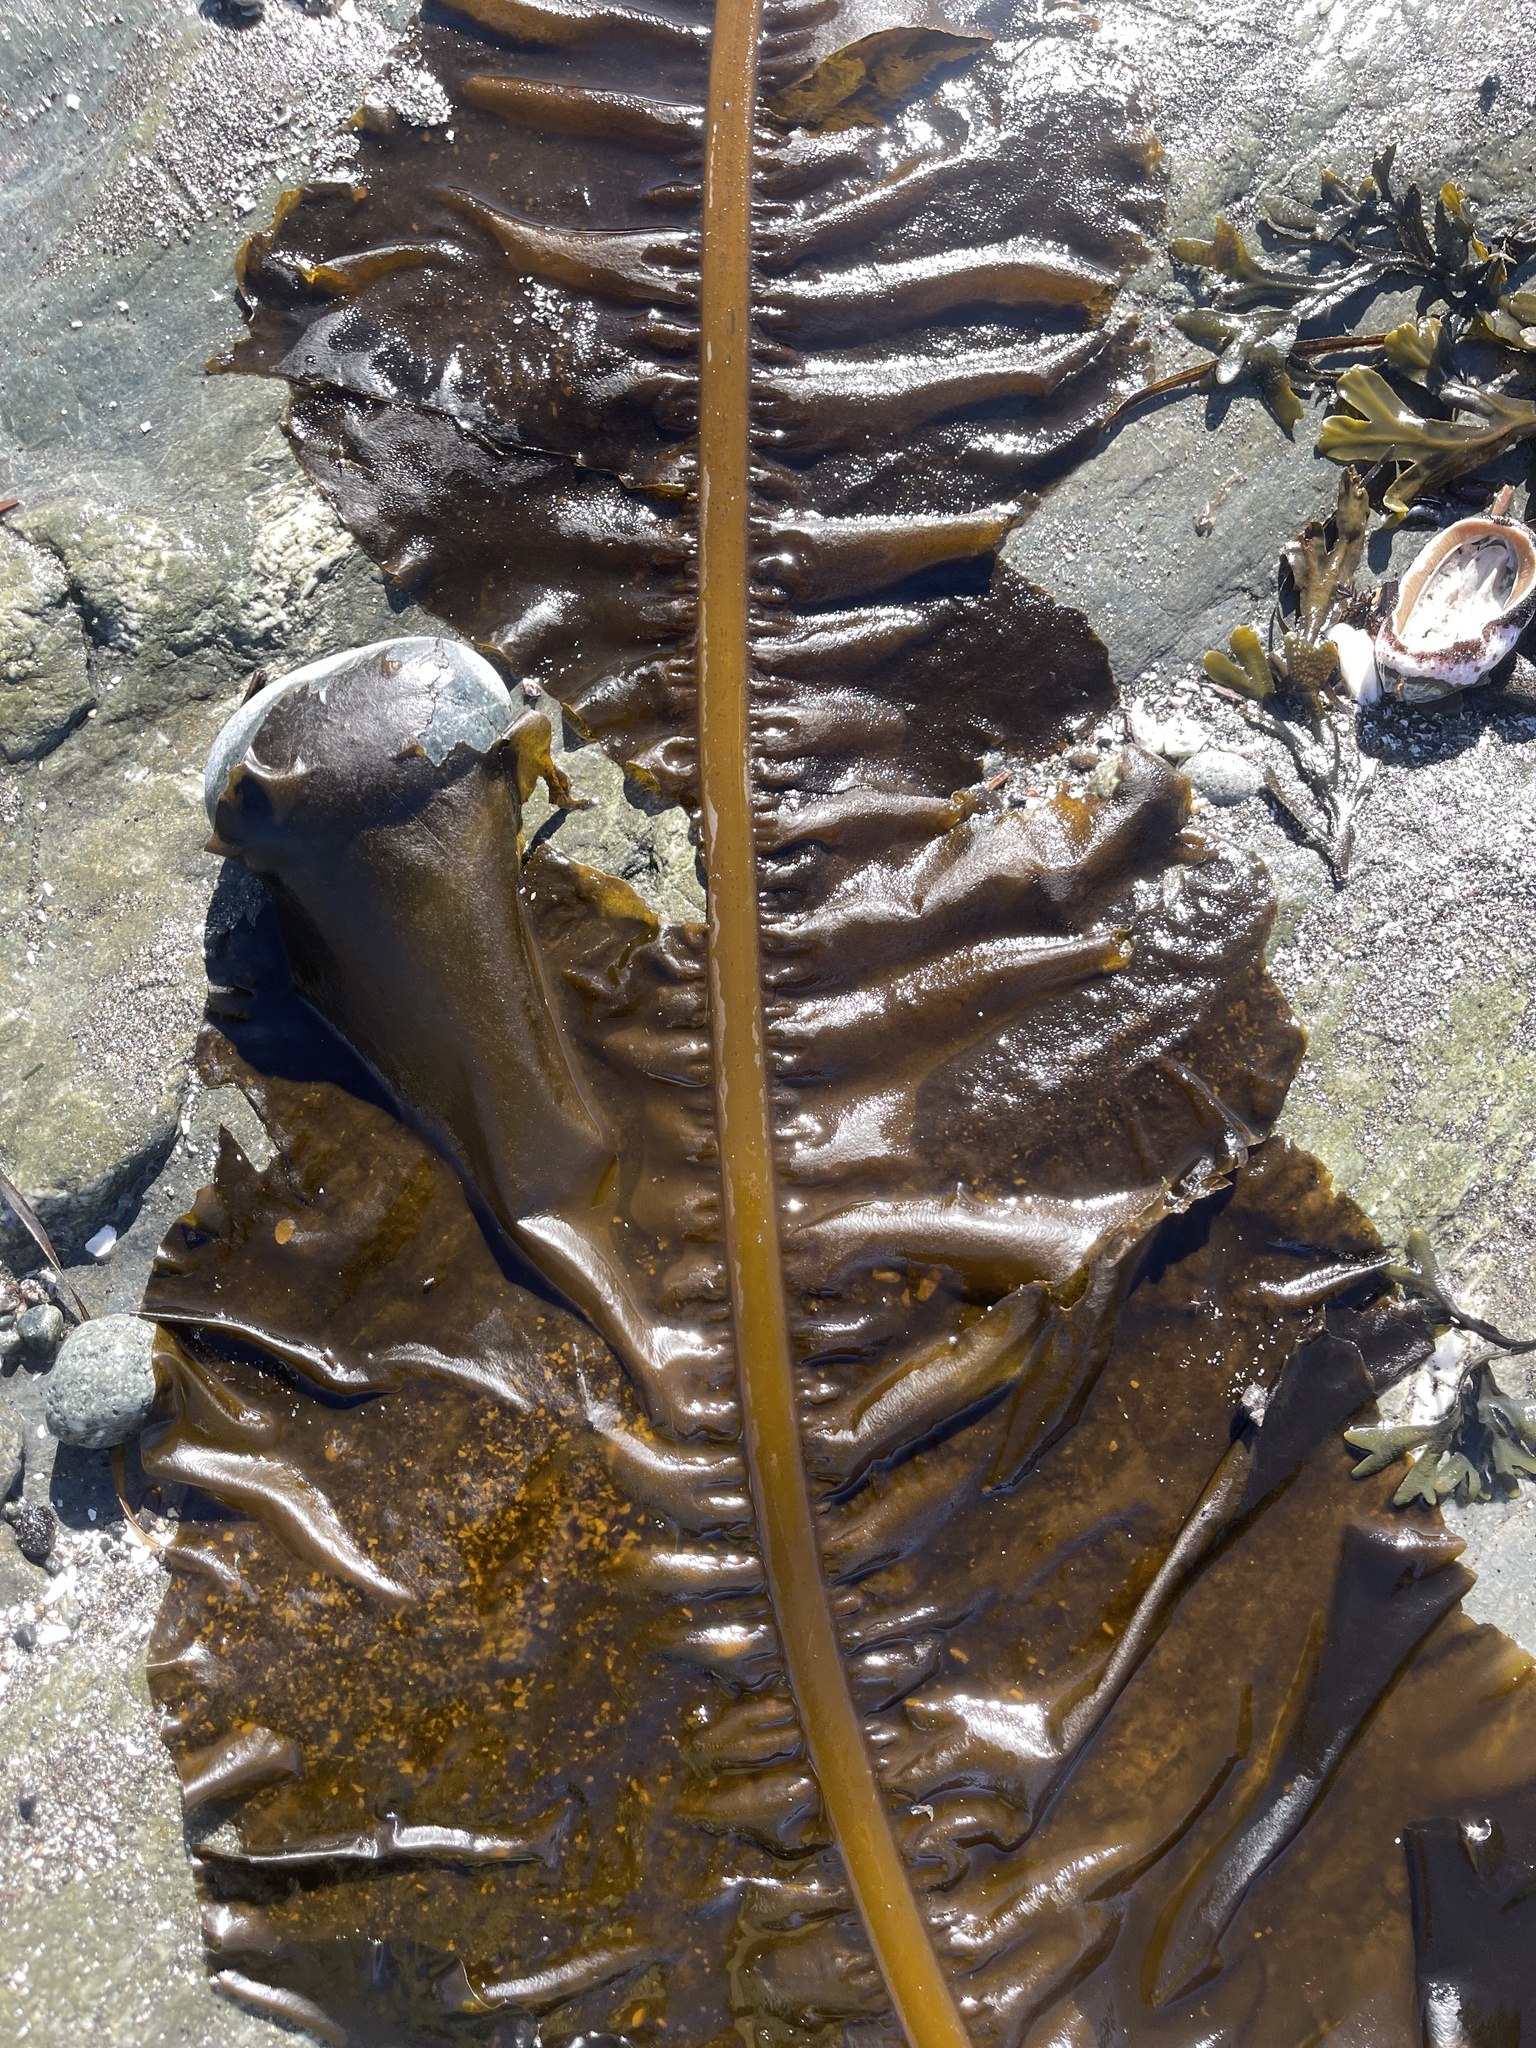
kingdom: Chromista
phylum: Ochrophyta
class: Phaeophyceae
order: Laminariales
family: Alariaceae
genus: Alaria
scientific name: Alaria marginata
